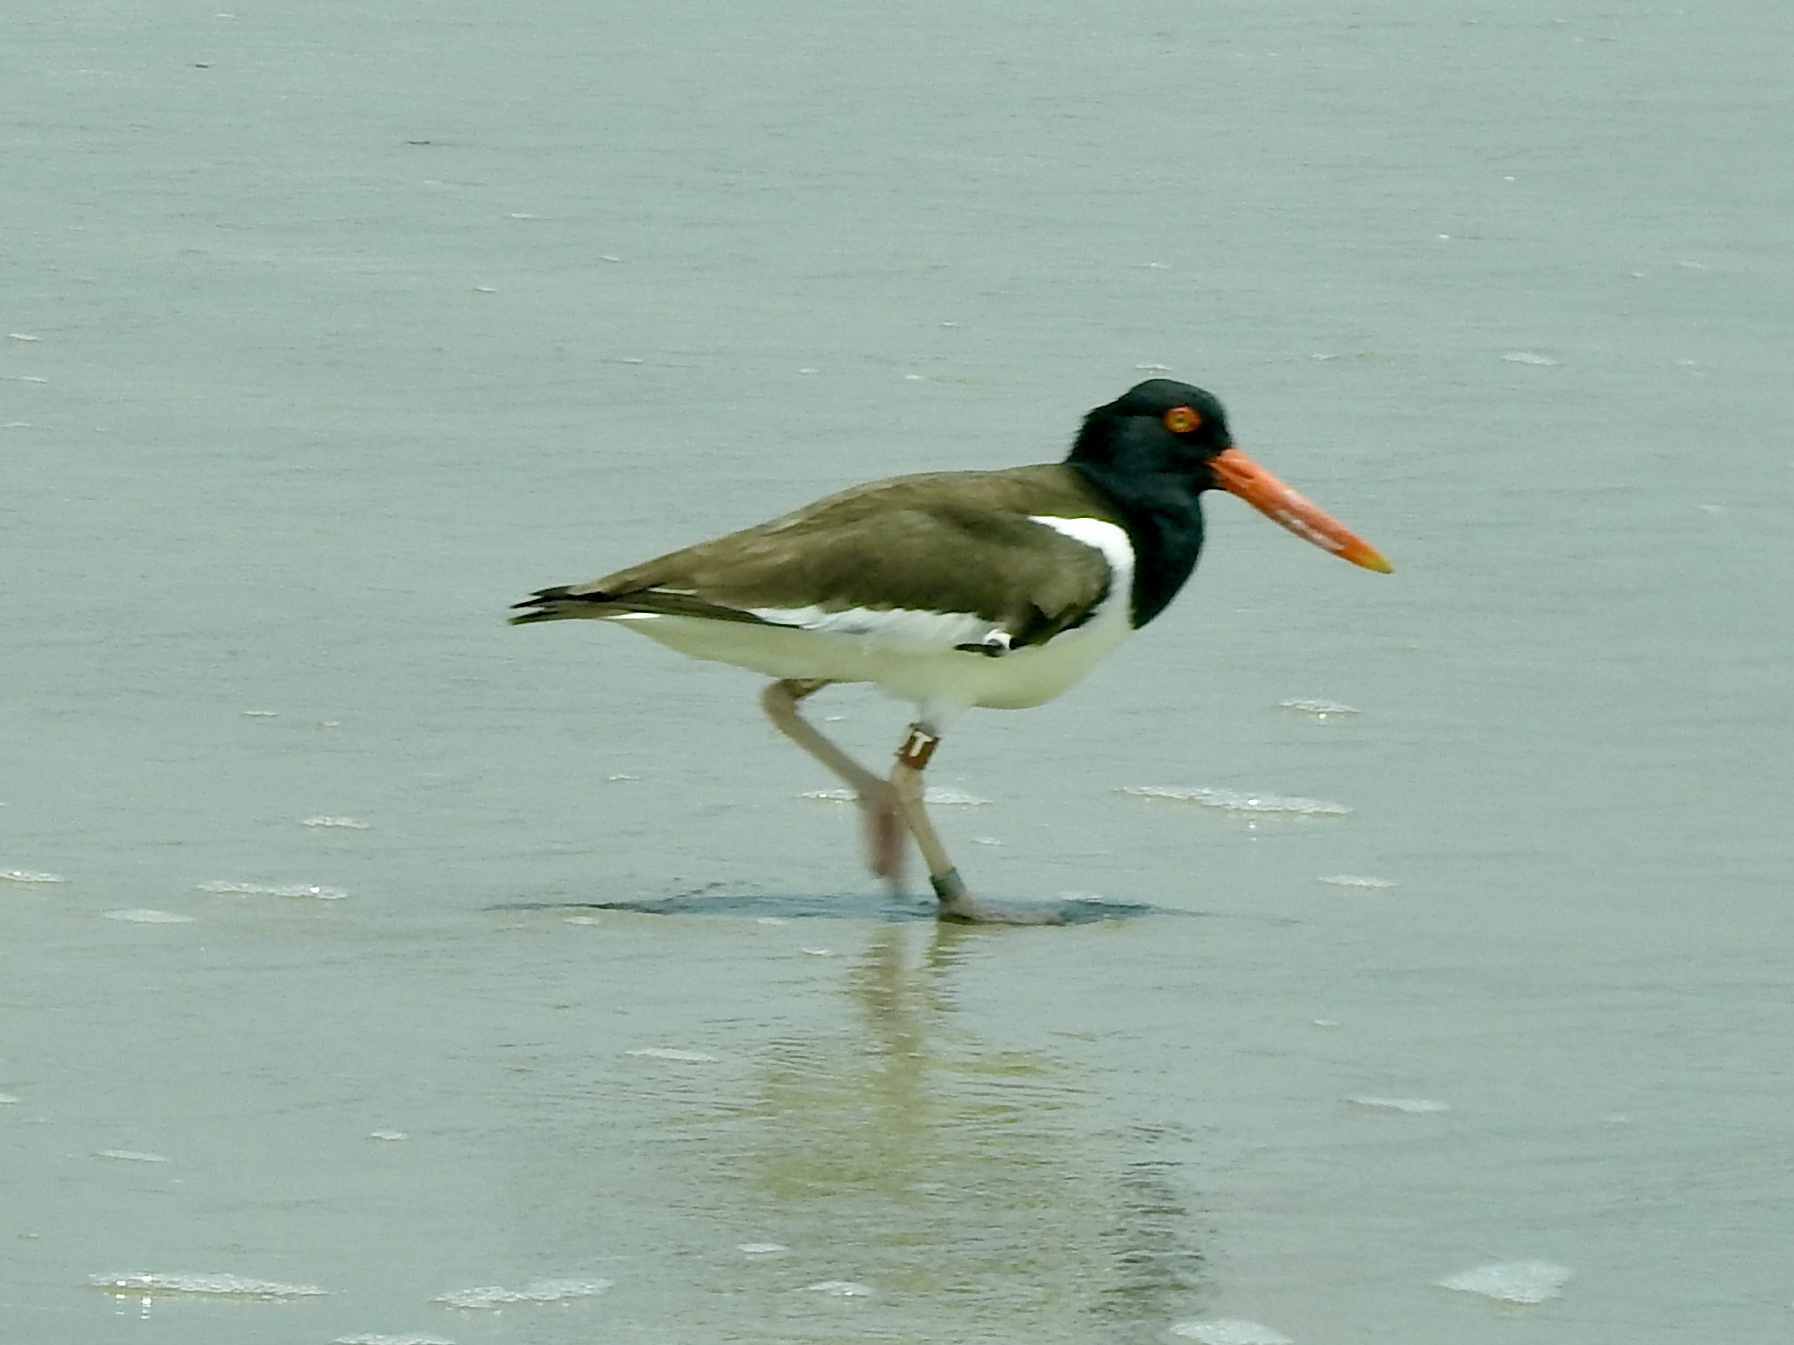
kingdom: Animalia
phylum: Chordata
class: Aves
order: Charadriiformes
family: Haematopodidae
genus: Haematopus
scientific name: Haematopus palliatus
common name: American oystercatcher
